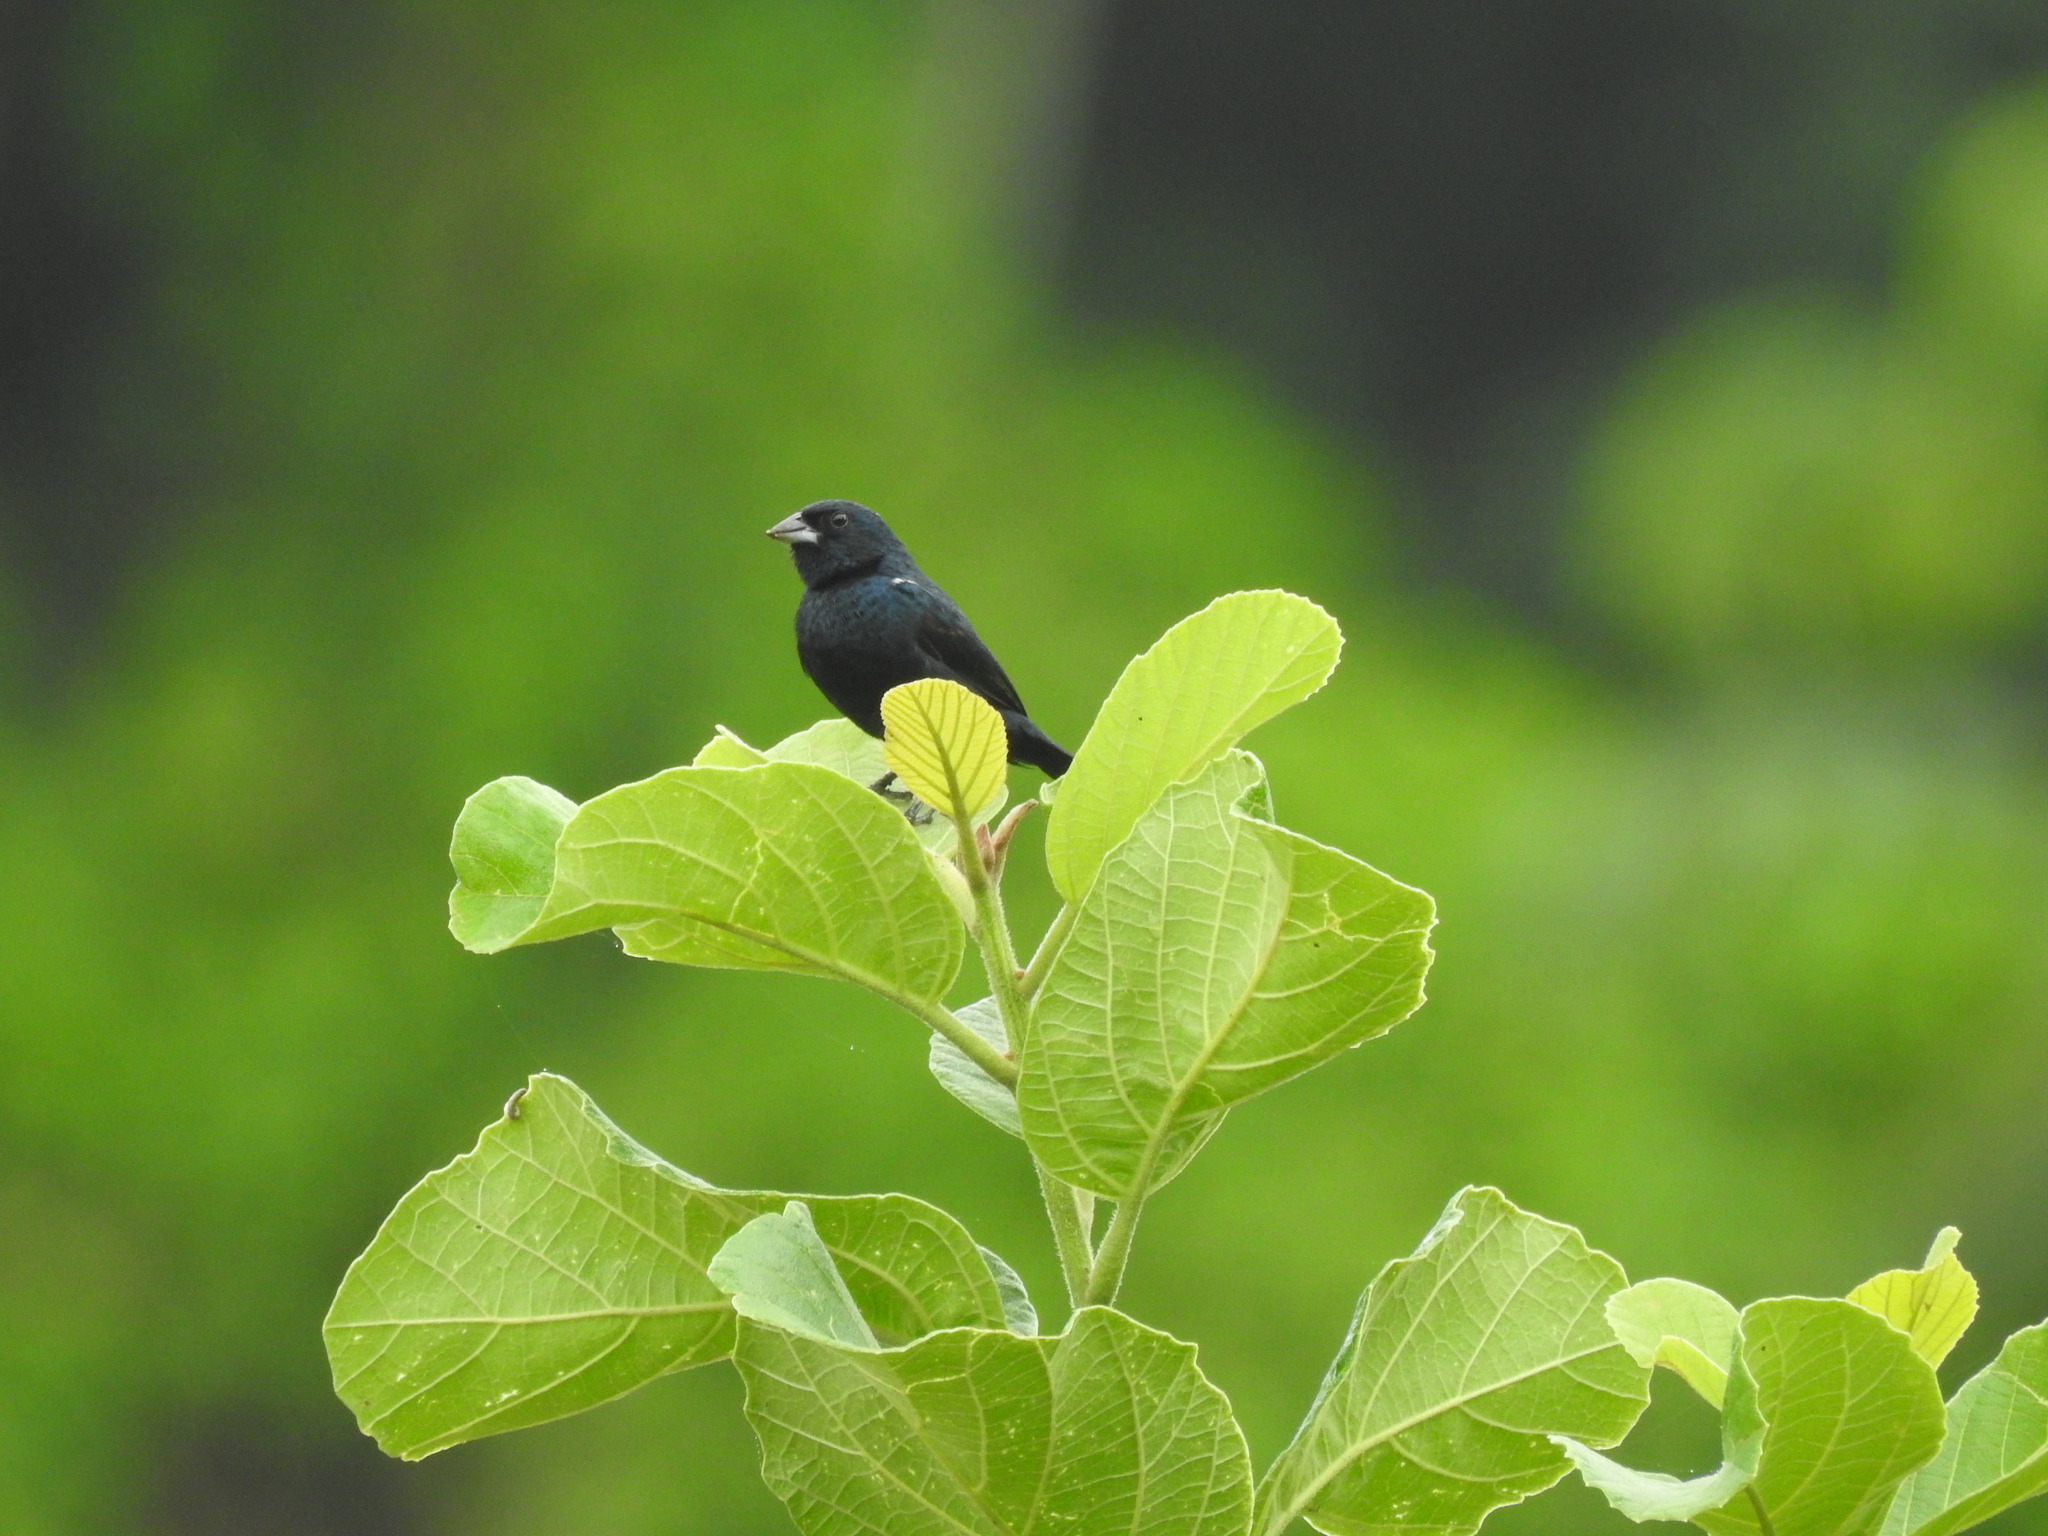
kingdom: Animalia
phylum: Chordata
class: Aves
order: Passeriformes
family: Thraupidae
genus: Volatinia
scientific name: Volatinia jacarina
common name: Blue-black grassquit
